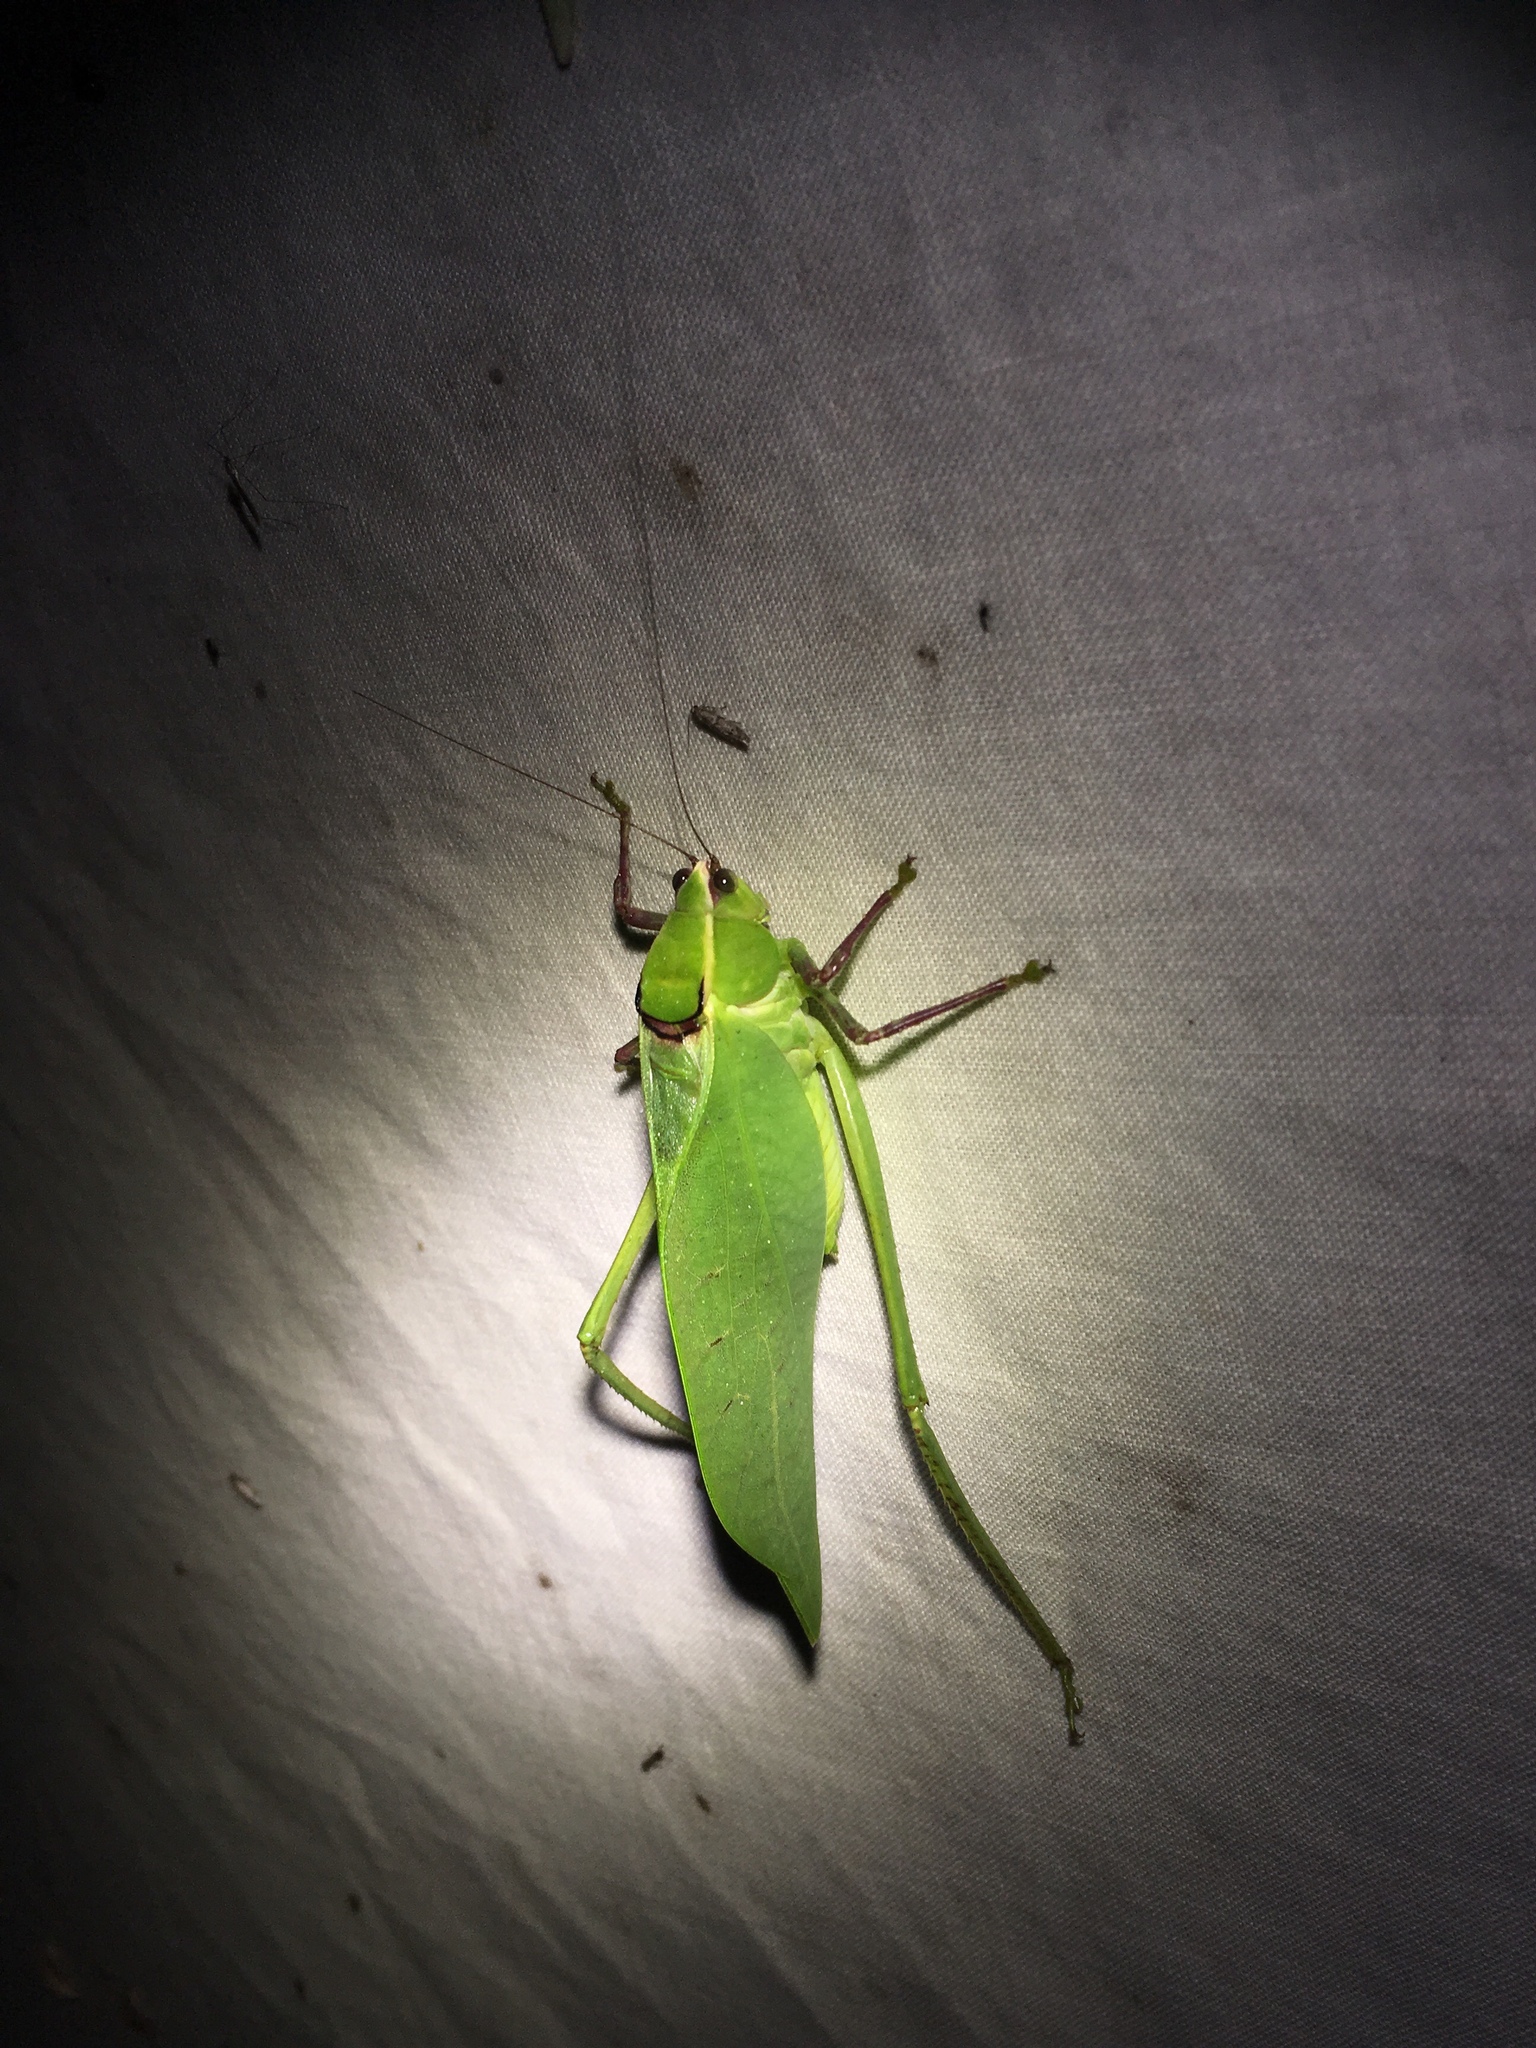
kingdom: Animalia
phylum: Arthropoda
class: Insecta
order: Orthoptera
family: Tettigoniidae
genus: Stilpnochlora
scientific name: Stilpnochlora couloniana
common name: Giant katydid
